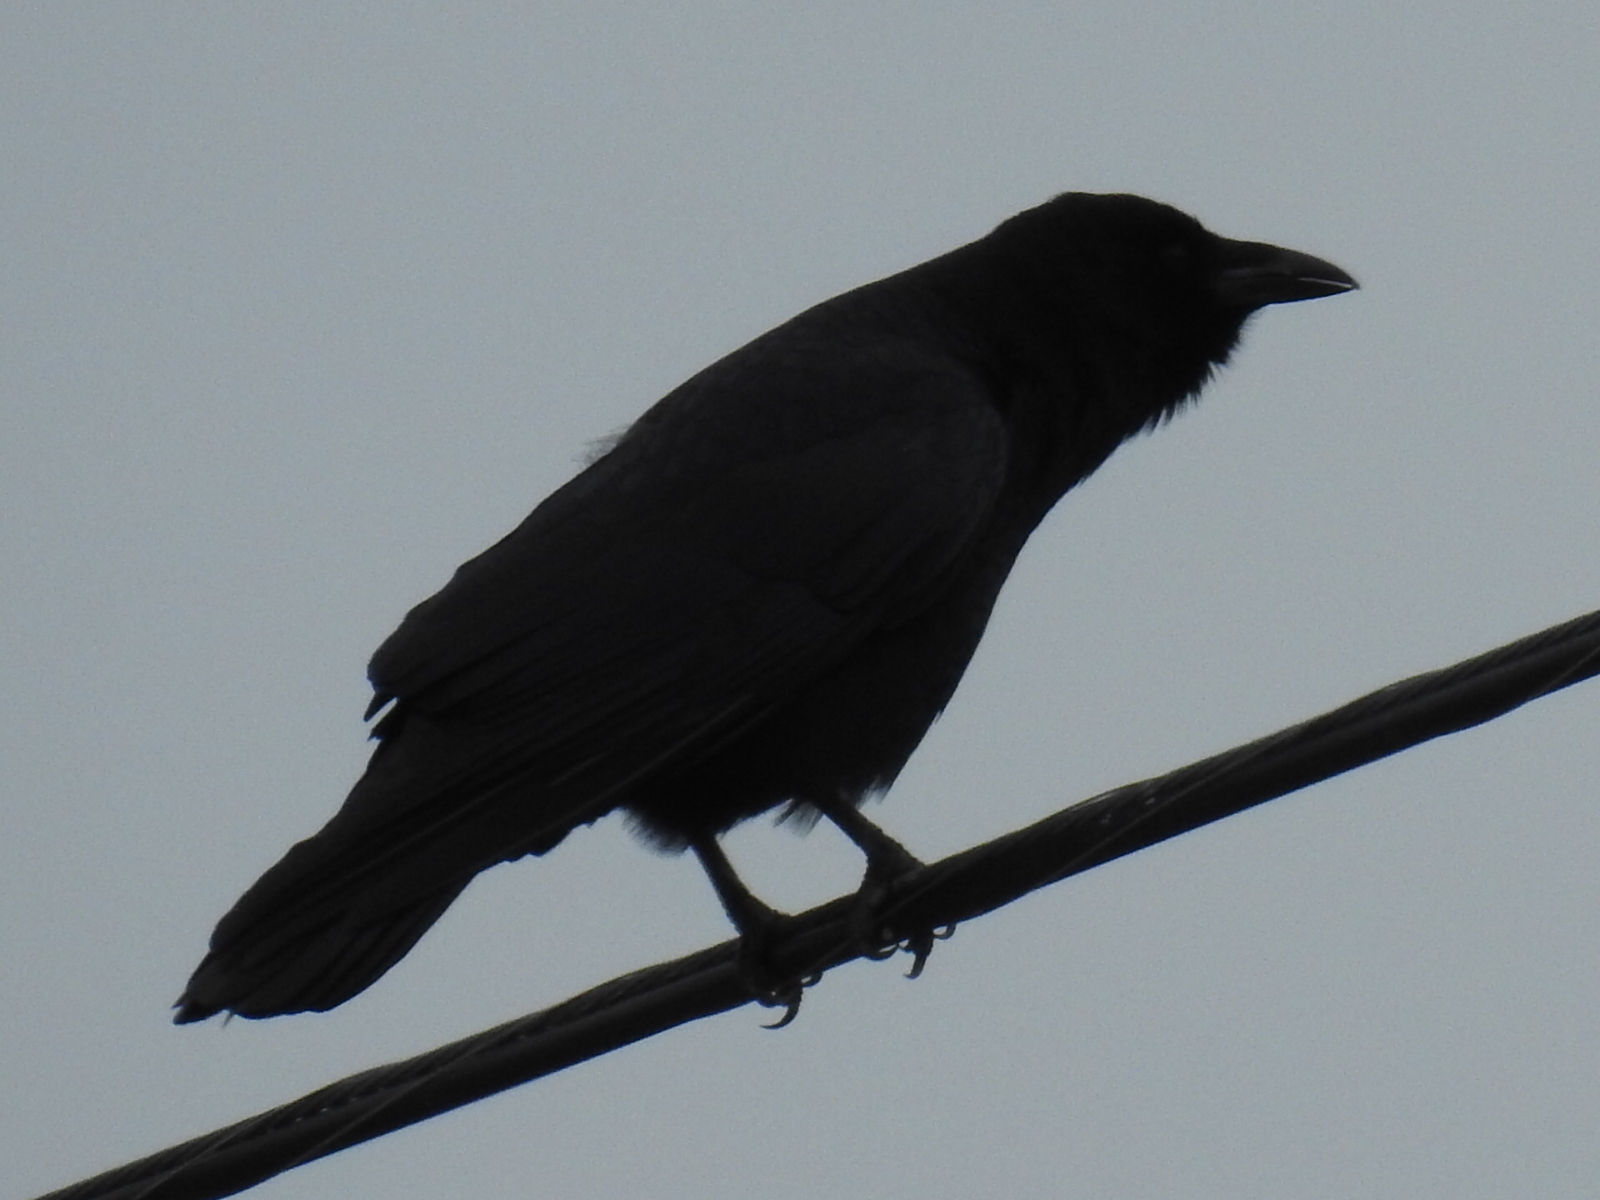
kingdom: Animalia
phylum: Chordata
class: Aves
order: Passeriformes
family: Corvidae
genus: Corvus
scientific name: Corvus brachyrhynchos
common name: American crow
